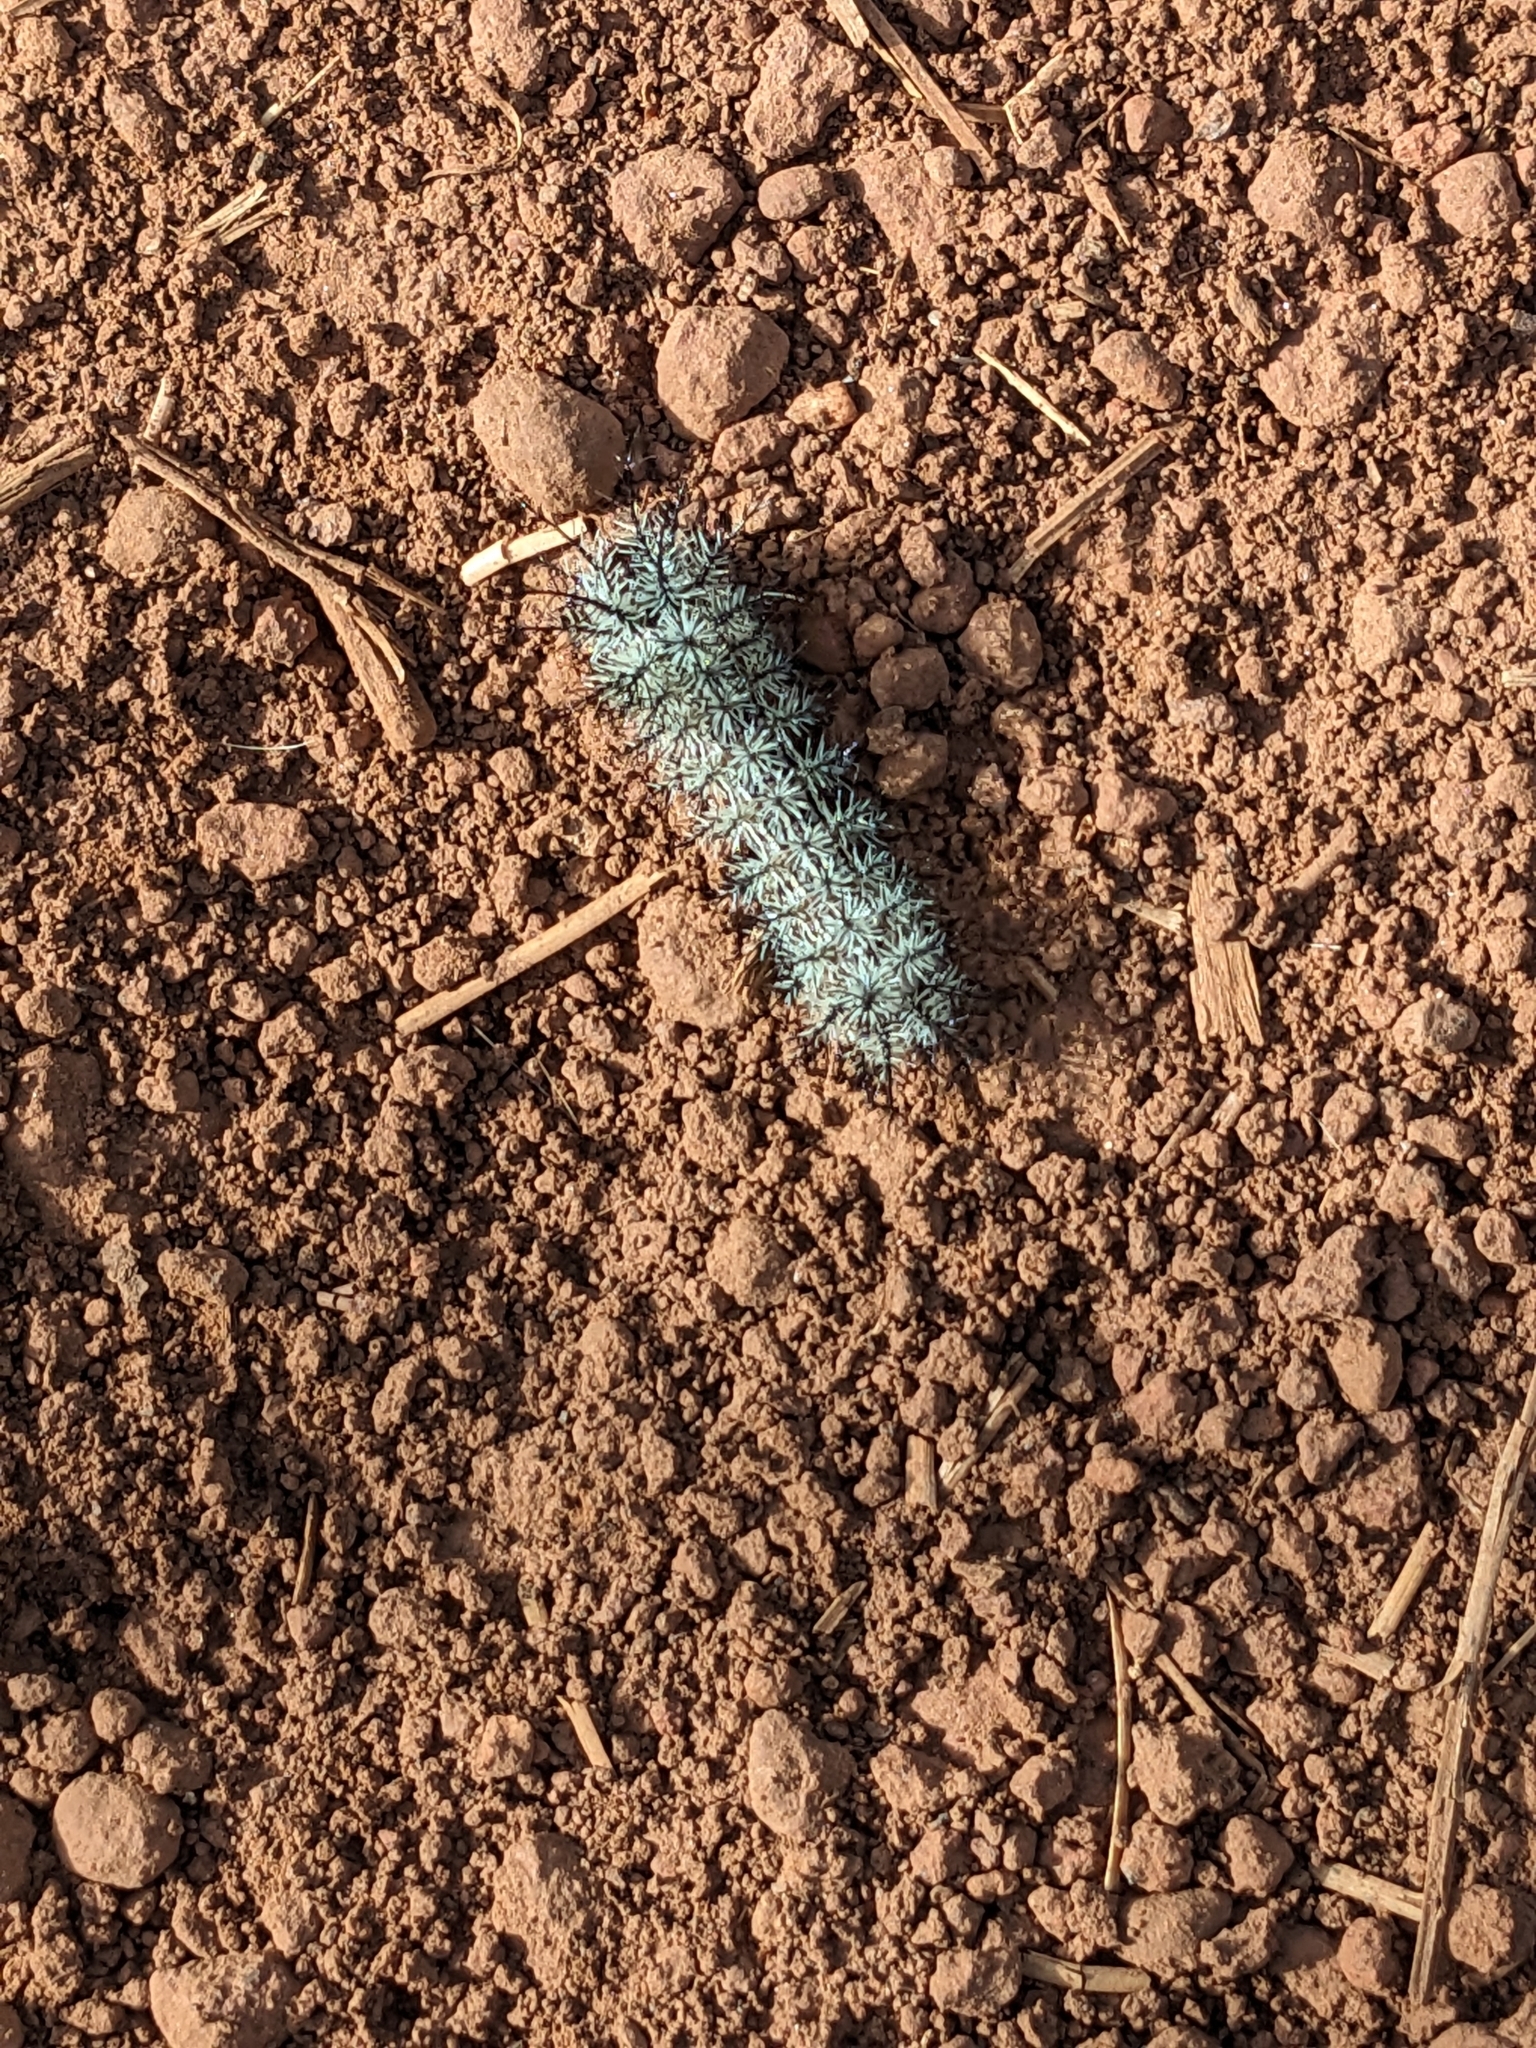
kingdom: Animalia
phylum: Arthropoda
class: Insecta
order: Lepidoptera
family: Saturniidae
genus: Automeris
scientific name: Automeris cecrops
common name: Cecrops eyed silkmoth
